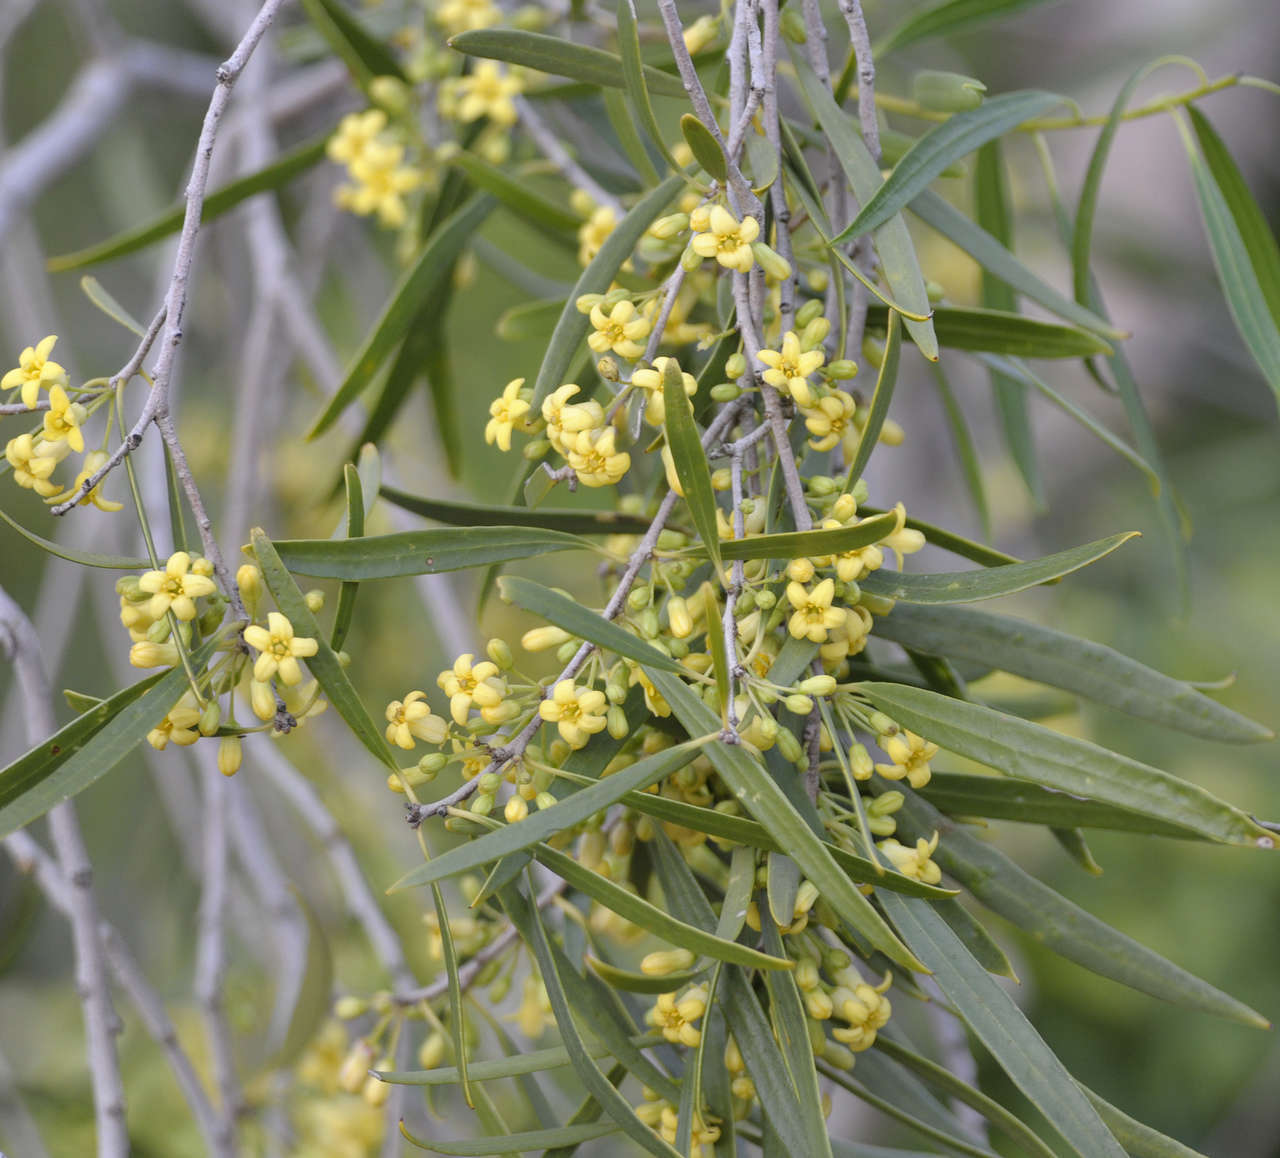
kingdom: Plantae
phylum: Tracheophyta
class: Magnoliopsida
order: Apiales
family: Pittosporaceae
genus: Pittosporum
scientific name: Pittosporum angustifolium
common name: Weeping pittosporum
